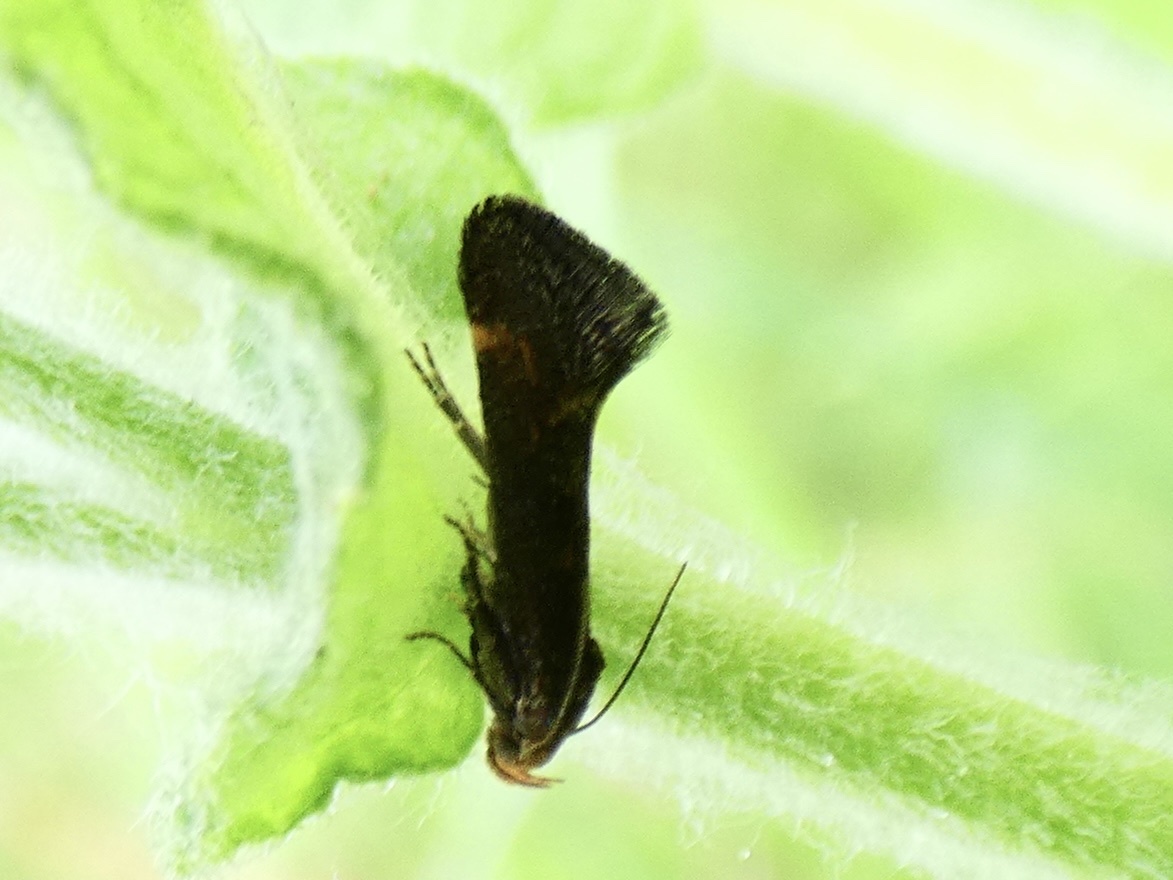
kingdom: Animalia
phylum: Arthropoda
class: Insecta
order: Lepidoptera
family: Gelechiidae
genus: Apodia
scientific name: Apodia martinii
